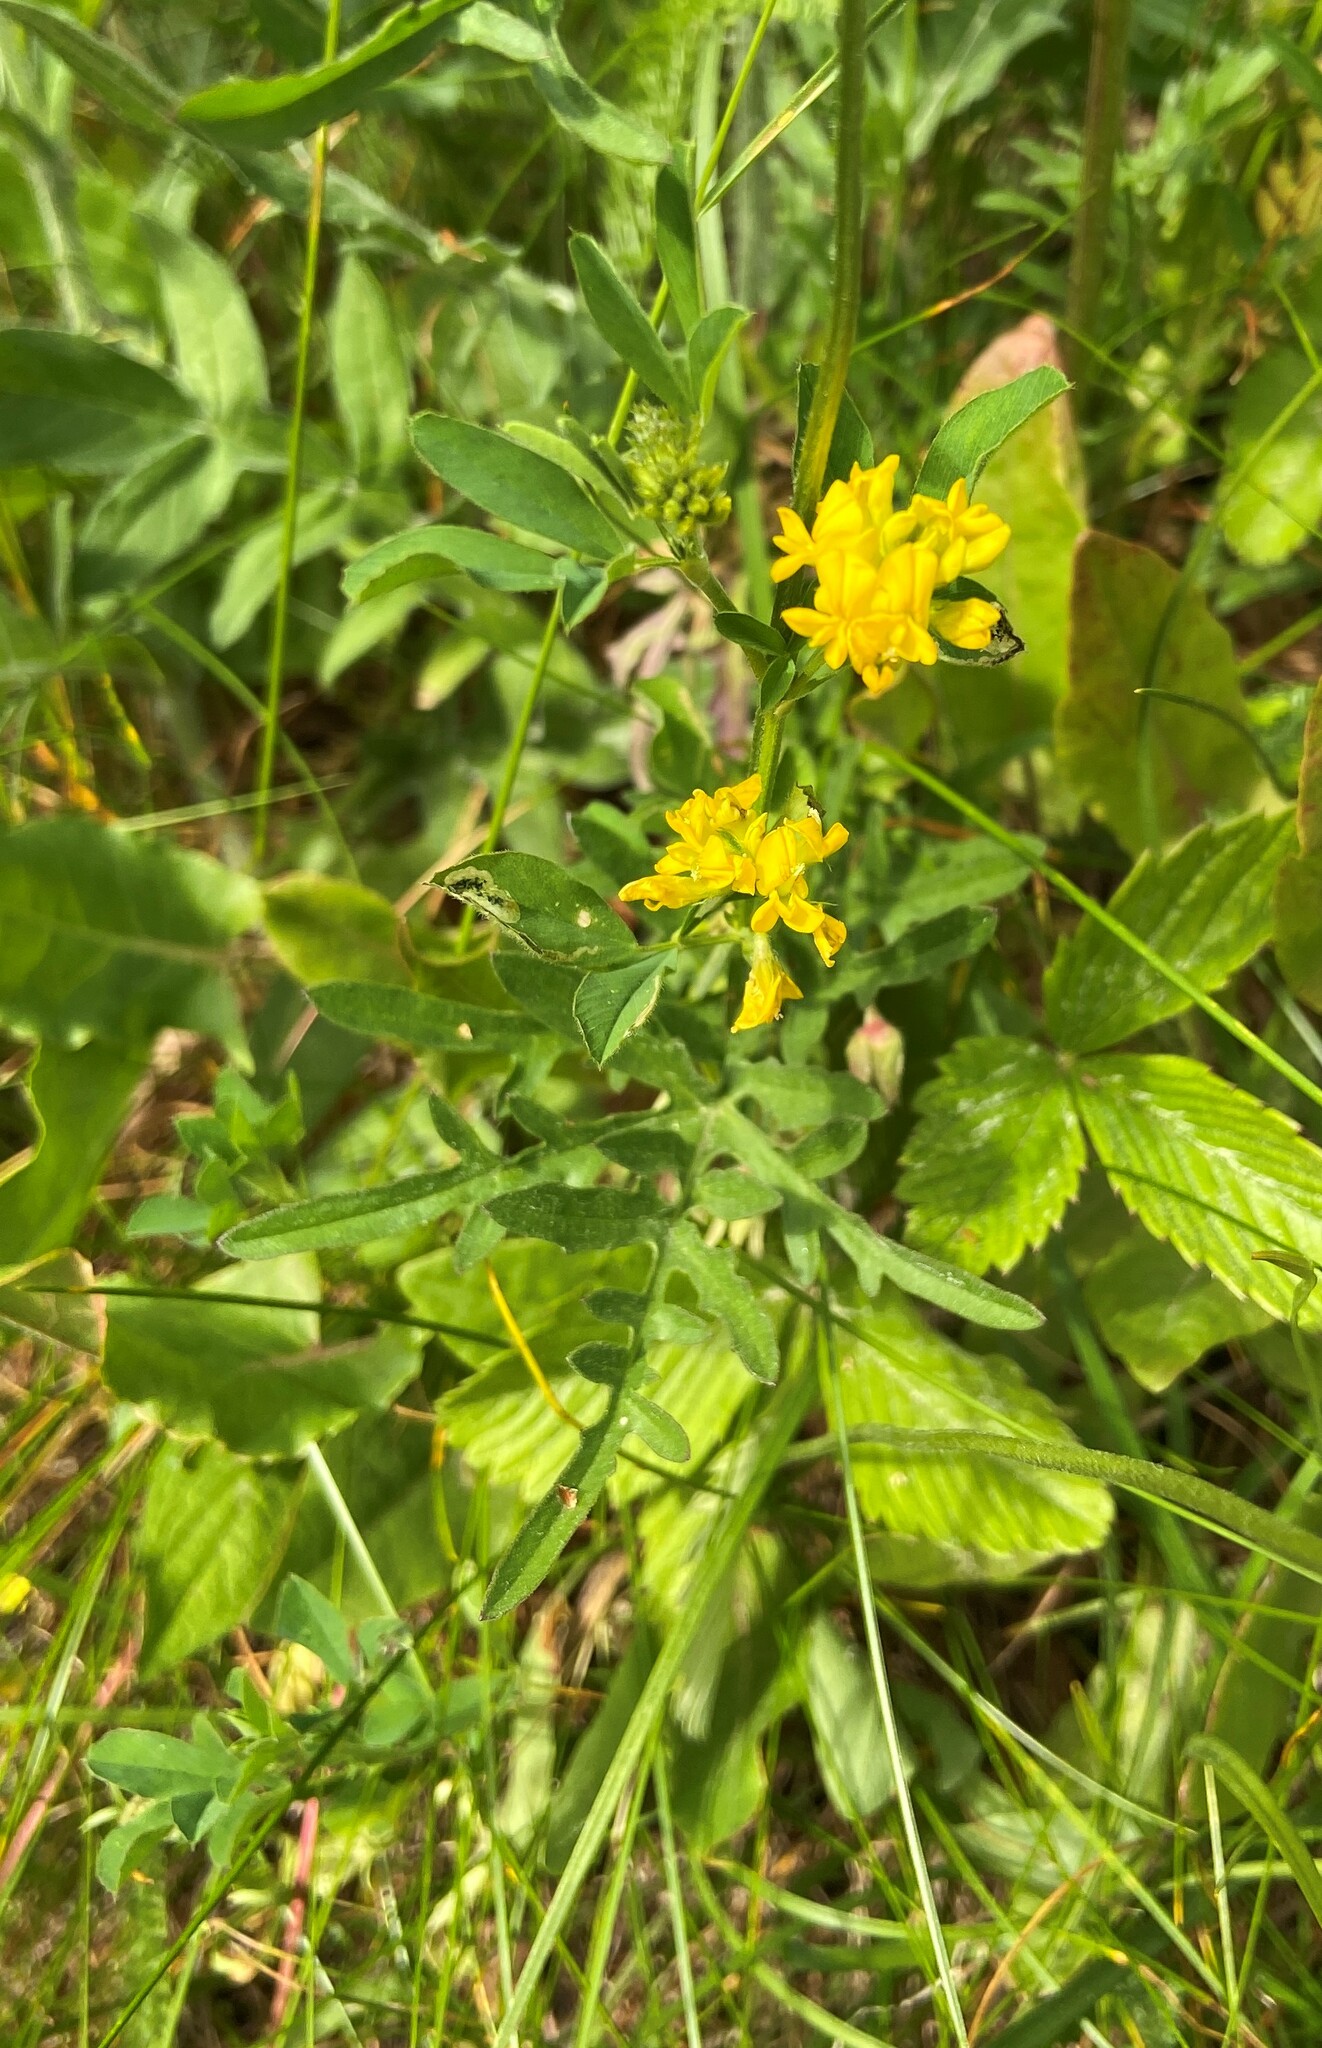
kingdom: Plantae
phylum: Tracheophyta
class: Magnoliopsida
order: Fabales
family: Fabaceae
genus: Medicago
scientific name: Medicago falcata
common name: Sickle medick
